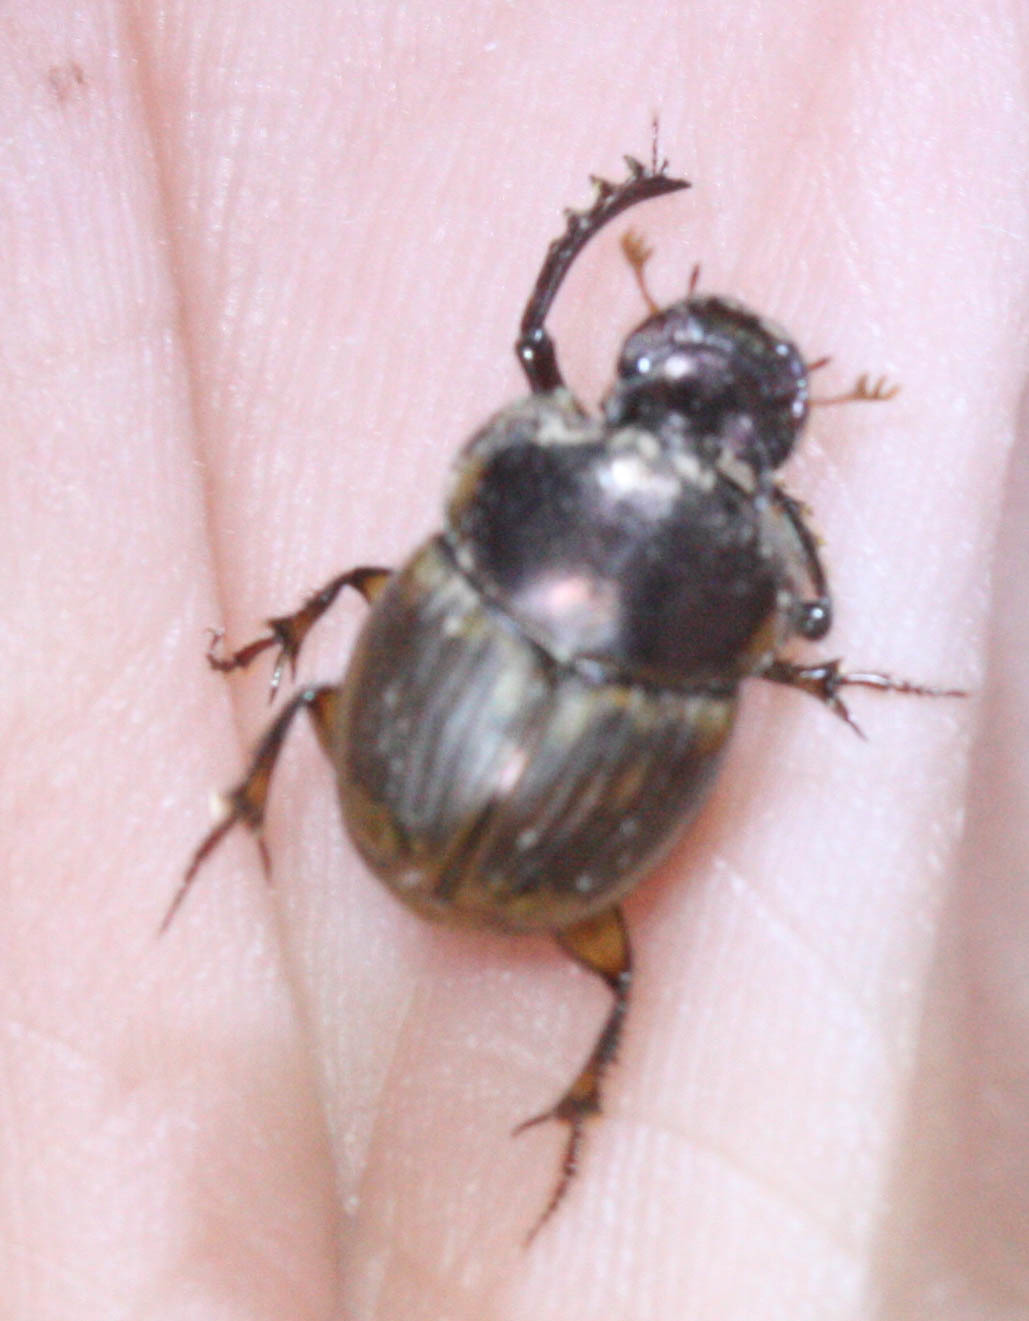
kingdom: Animalia
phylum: Arthropoda
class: Insecta
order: Coleoptera
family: Scarabaeidae
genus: Digitonthophagus
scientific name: Digitonthophagus gazella
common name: Brown dung beetle
